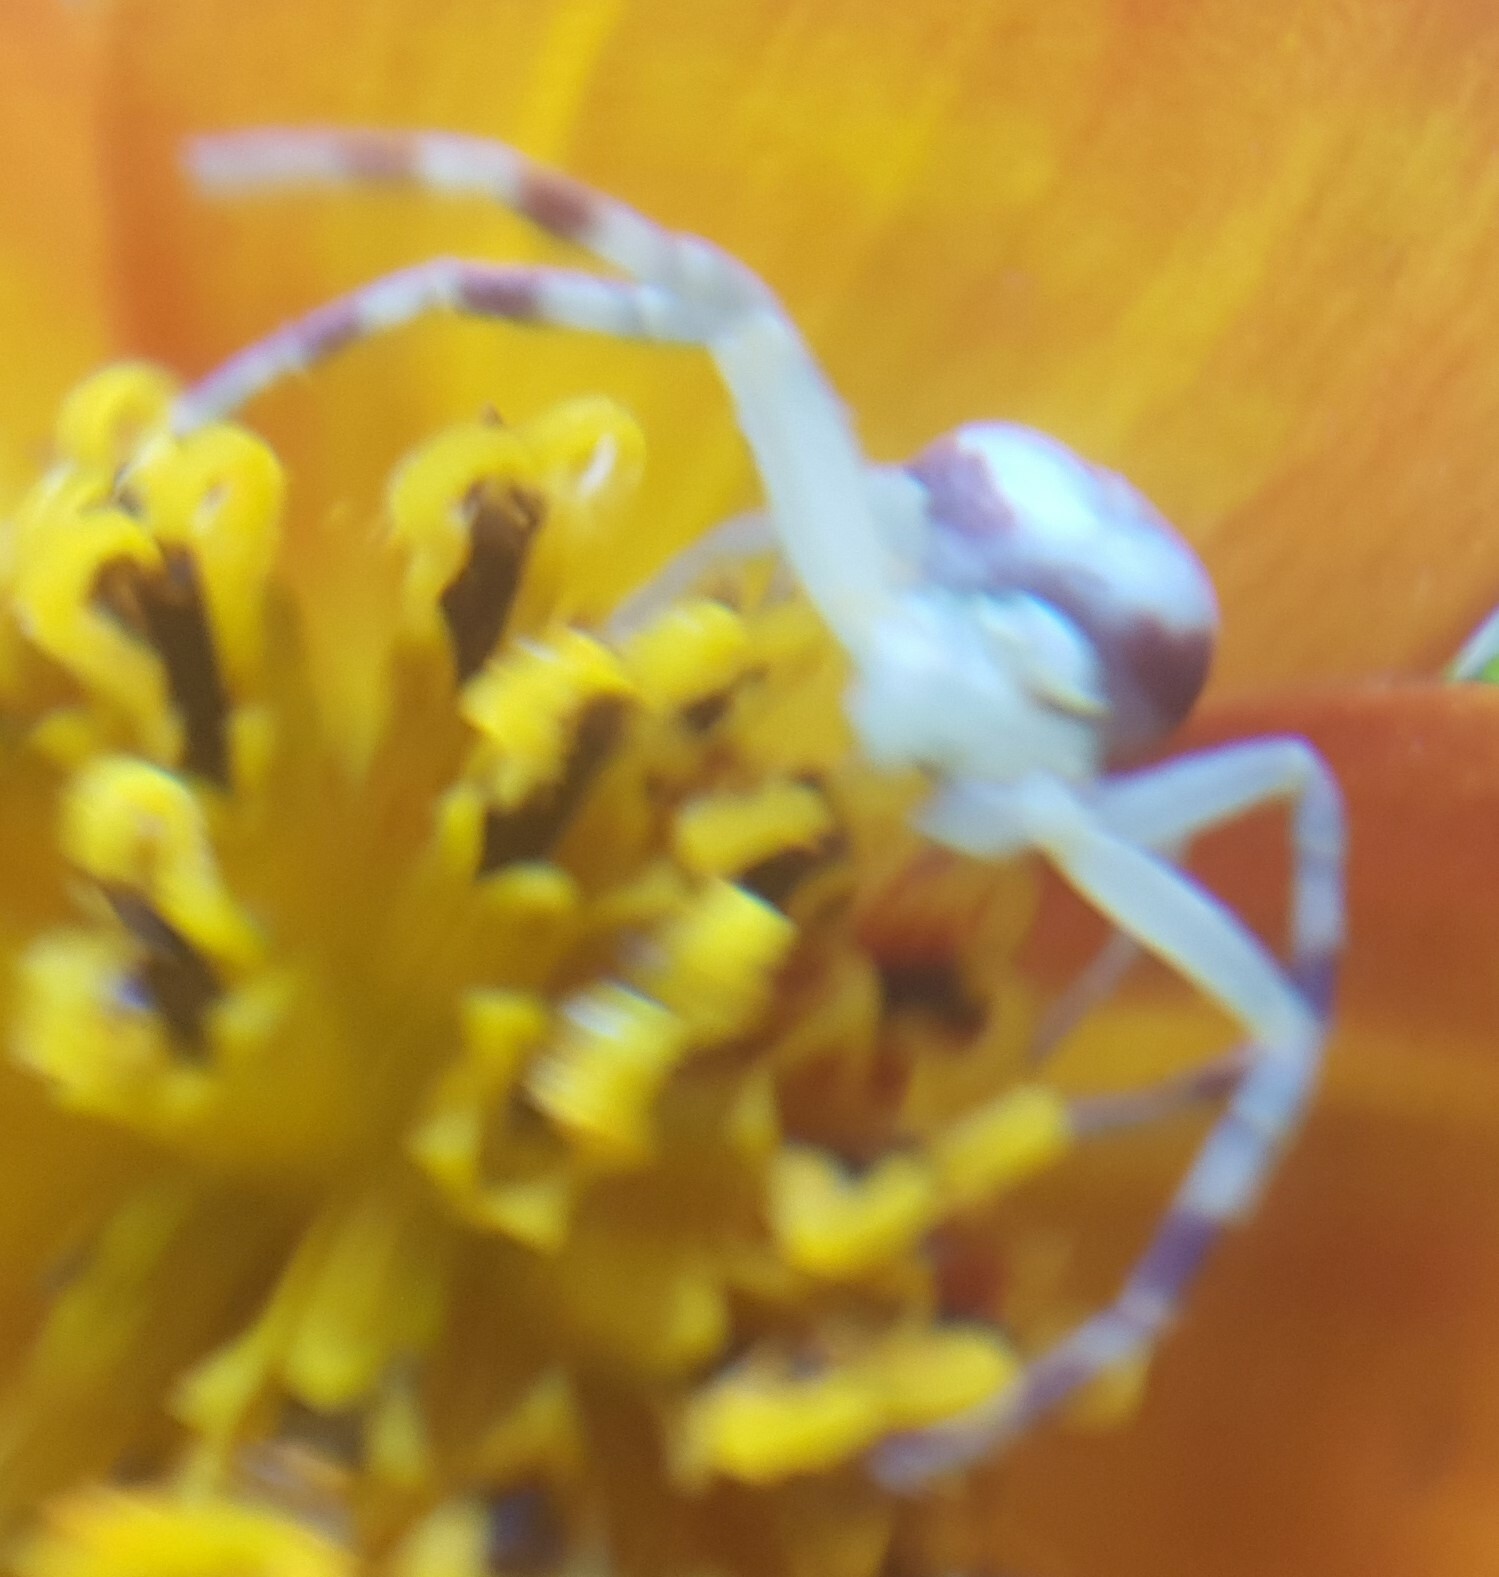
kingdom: Animalia
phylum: Arthropoda
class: Arachnida
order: Araneae
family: Thomisidae
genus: Misumena
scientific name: Misumena vatia
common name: Goldenrod crab spider
